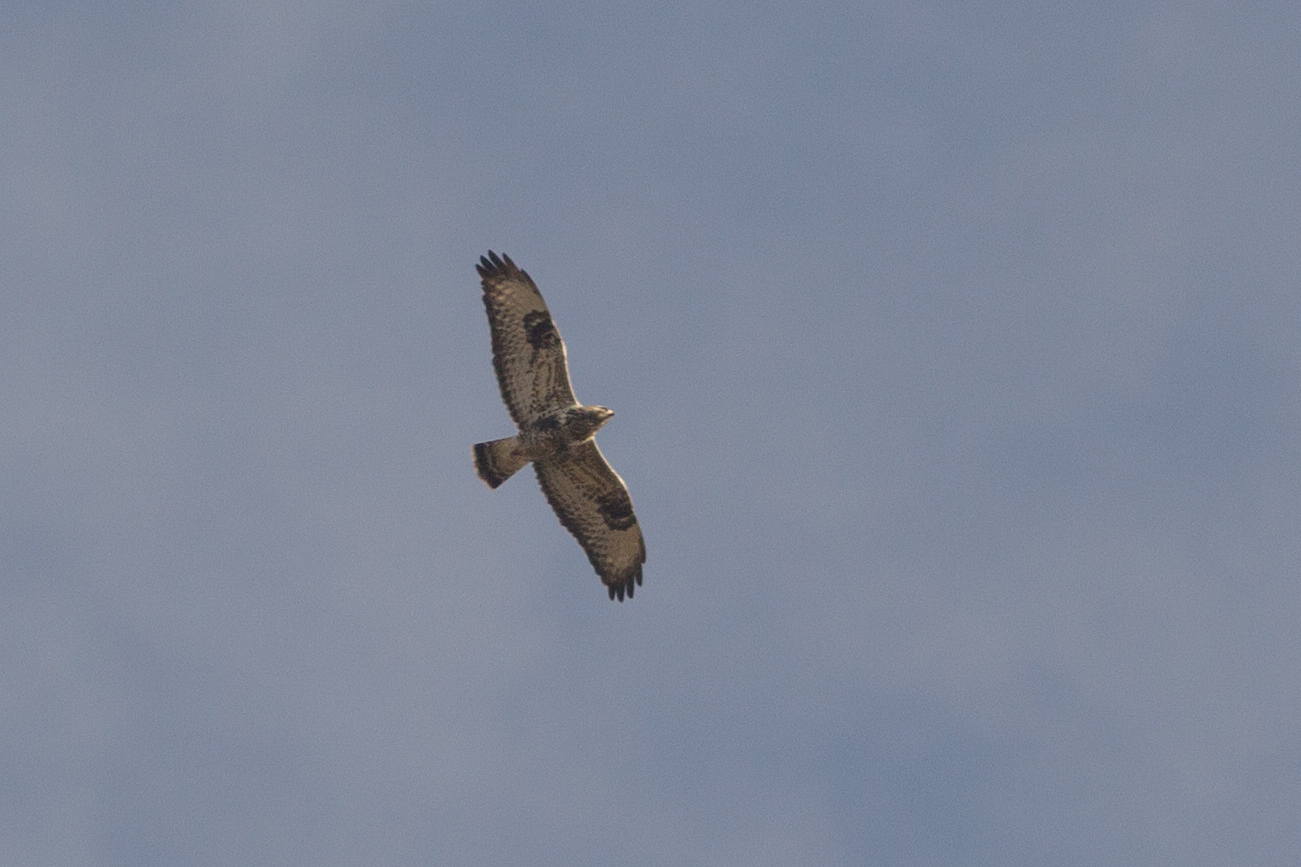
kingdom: Animalia
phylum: Chordata
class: Aves
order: Accipitriformes
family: Accipitridae
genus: Buteo
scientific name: Buteo lagopus
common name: Rough-legged buzzard
